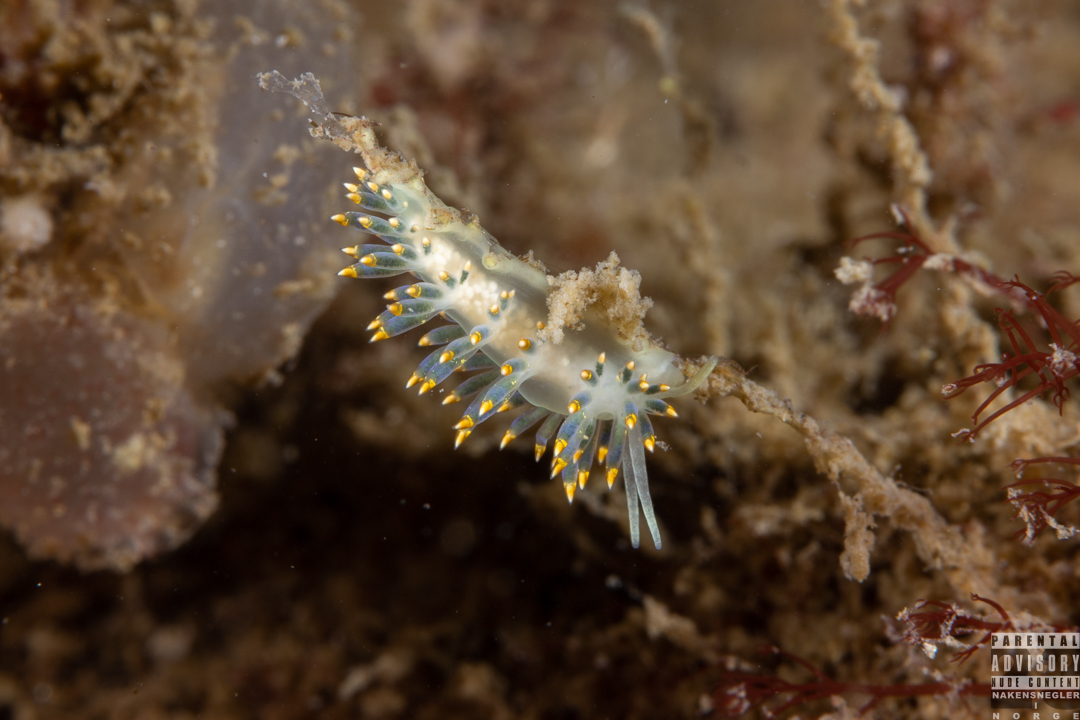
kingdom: Animalia
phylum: Mollusca
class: Gastropoda
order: Nudibranchia
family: Trinchesiidae
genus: Trinchesia
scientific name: Trinchesia cuanensis
